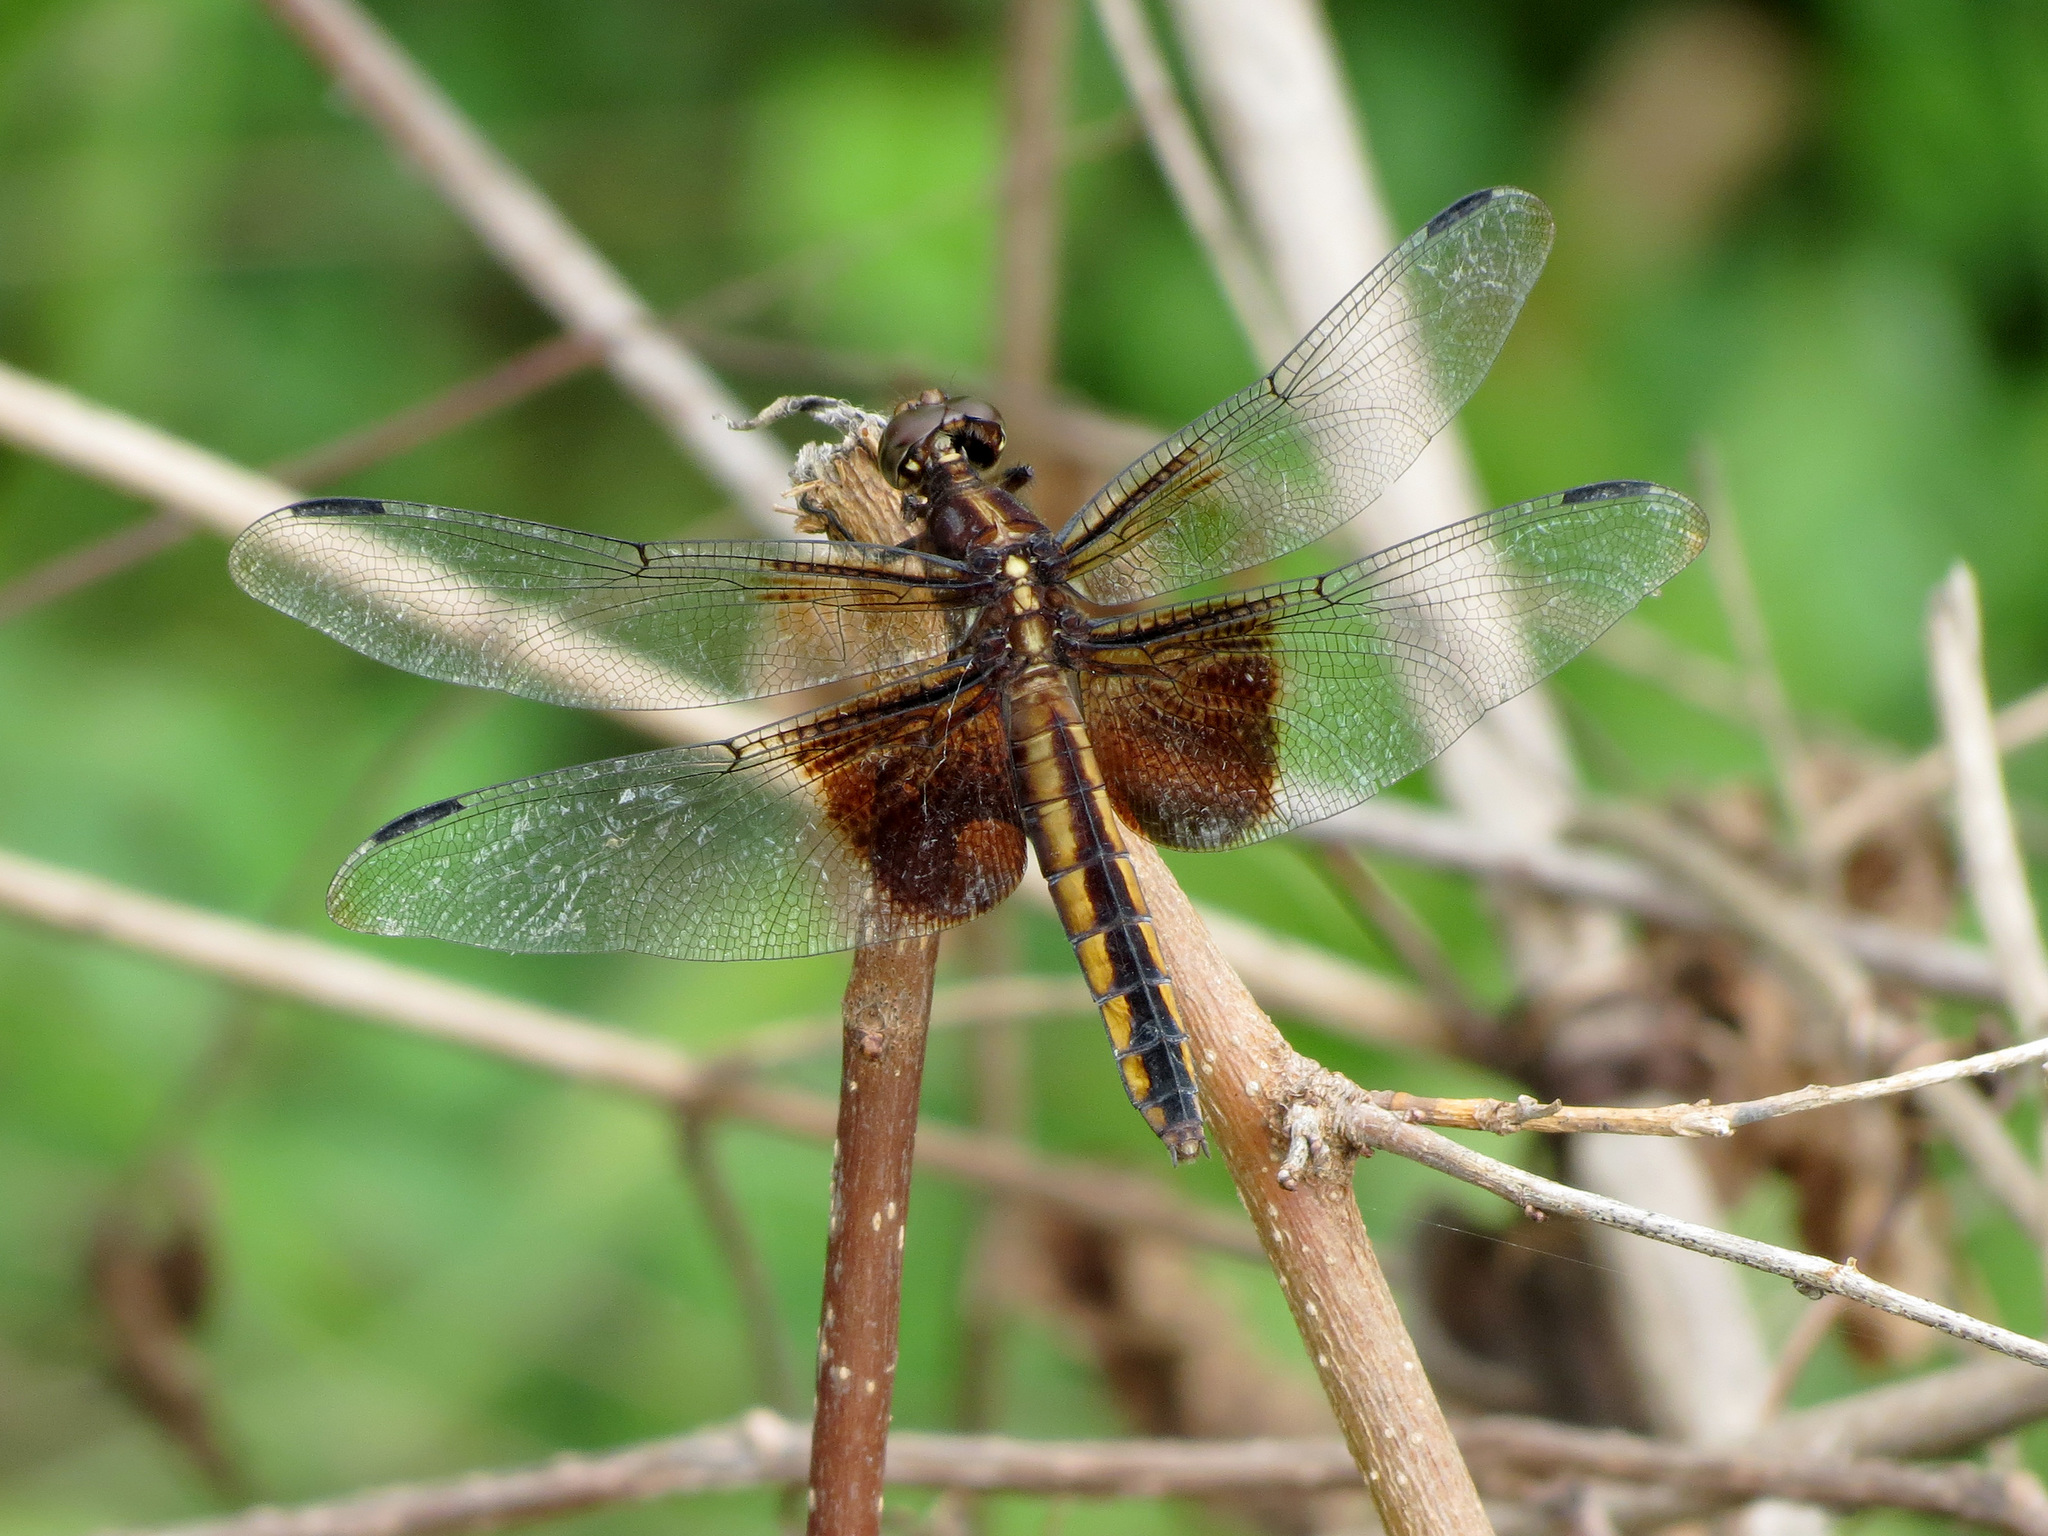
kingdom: Animalia
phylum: Arthropoda
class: Insecta
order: Odonata
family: Libellulidae
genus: Libellula
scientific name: Libellula luctuosa
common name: Widow skimmer
